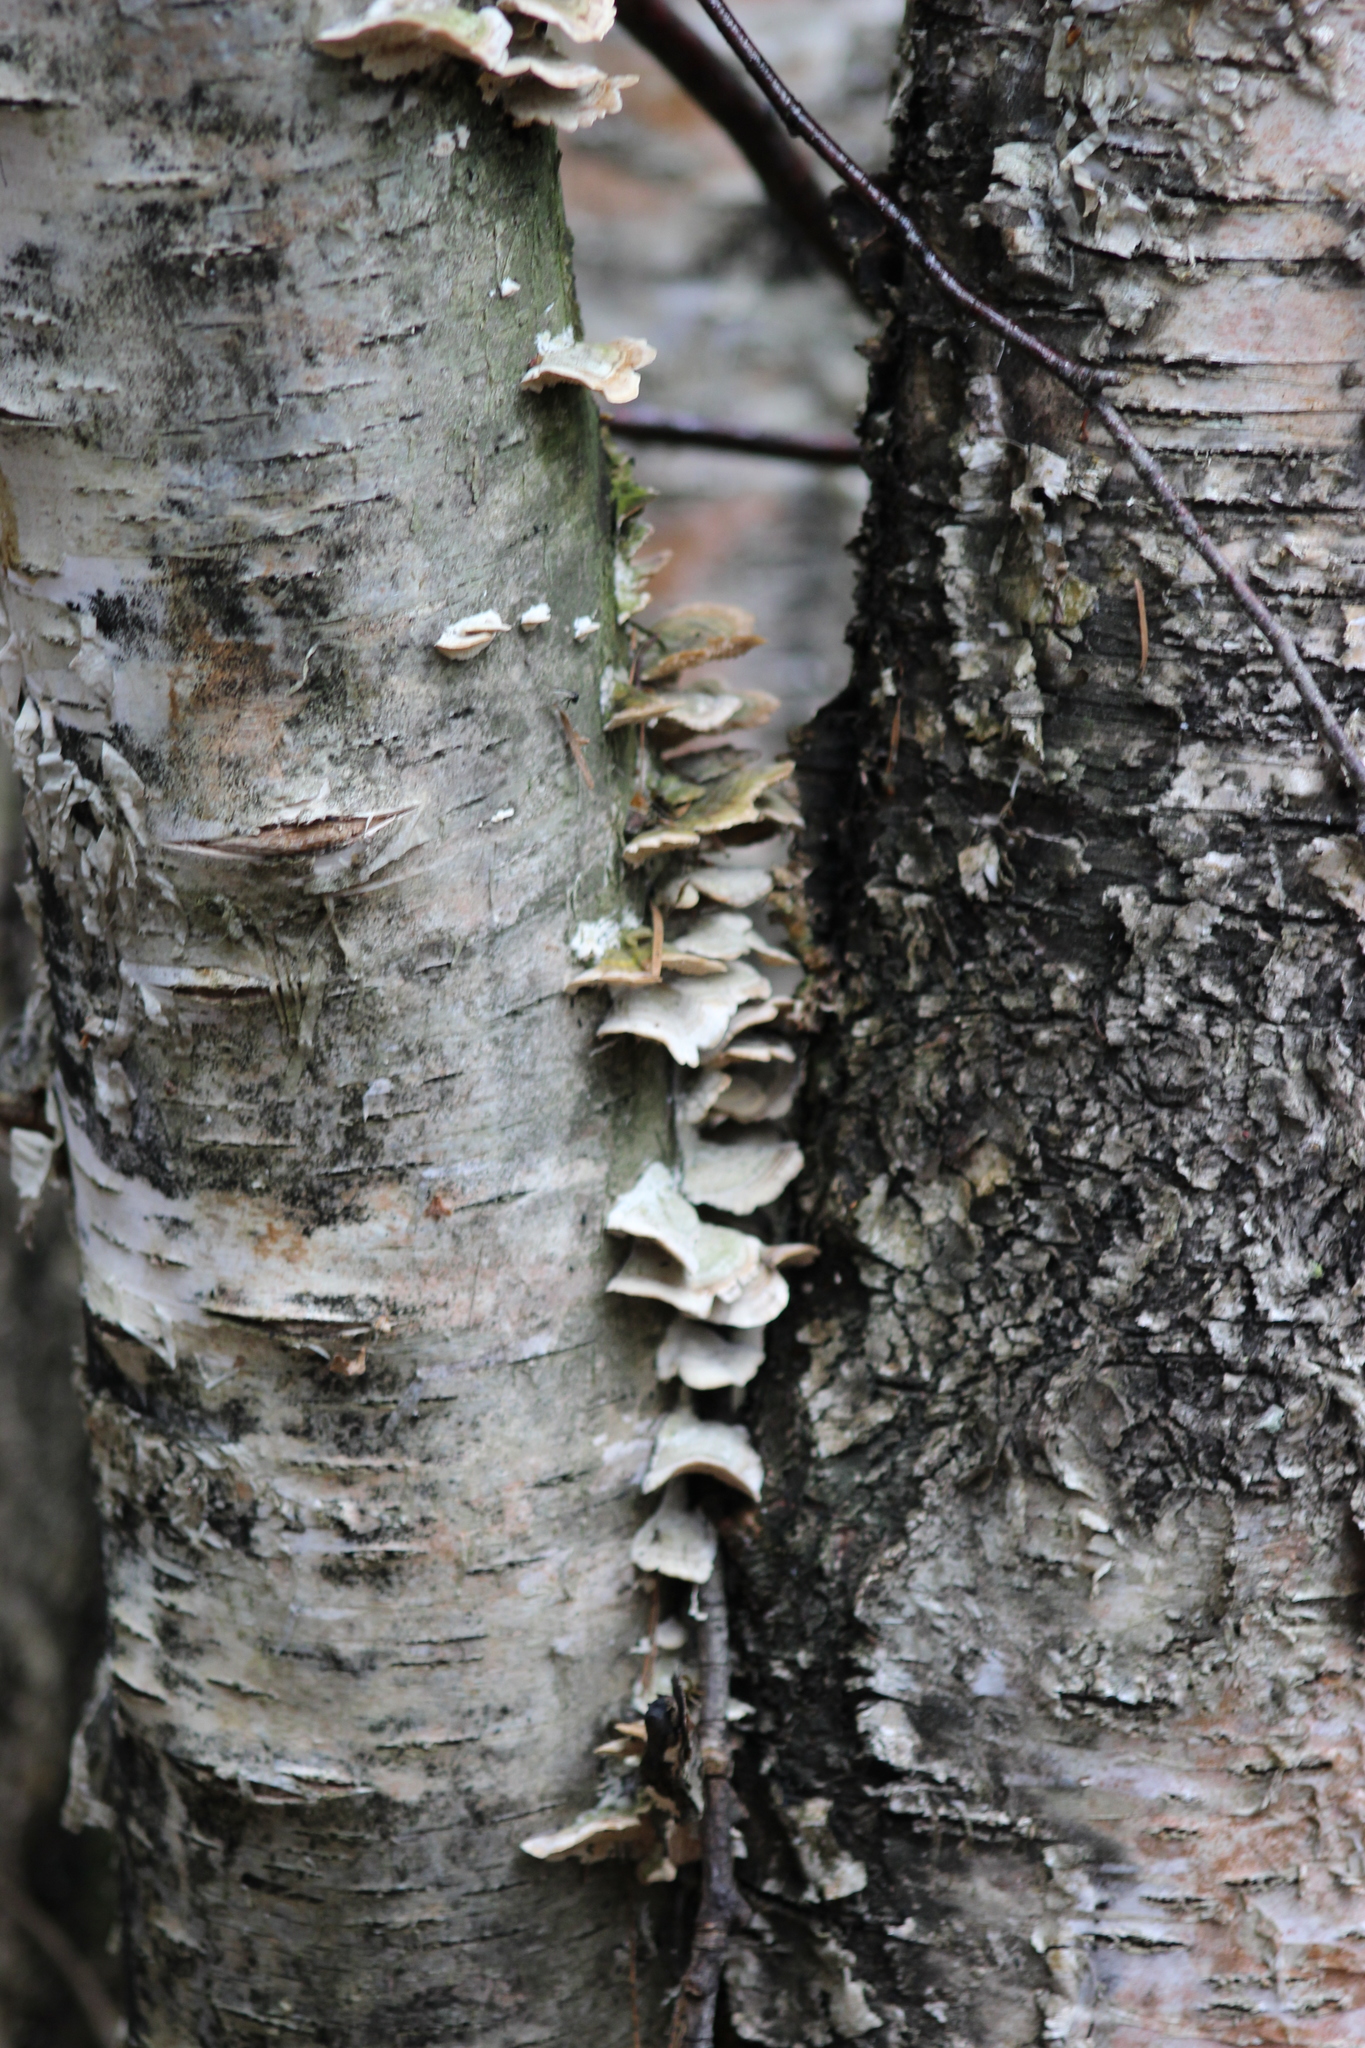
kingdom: Fungi
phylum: Basidiomycota
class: Agaricomycetes
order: Hymenochaetales
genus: Trichaptum
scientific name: Trichaptum biforme
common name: Violet-toothed polypore
